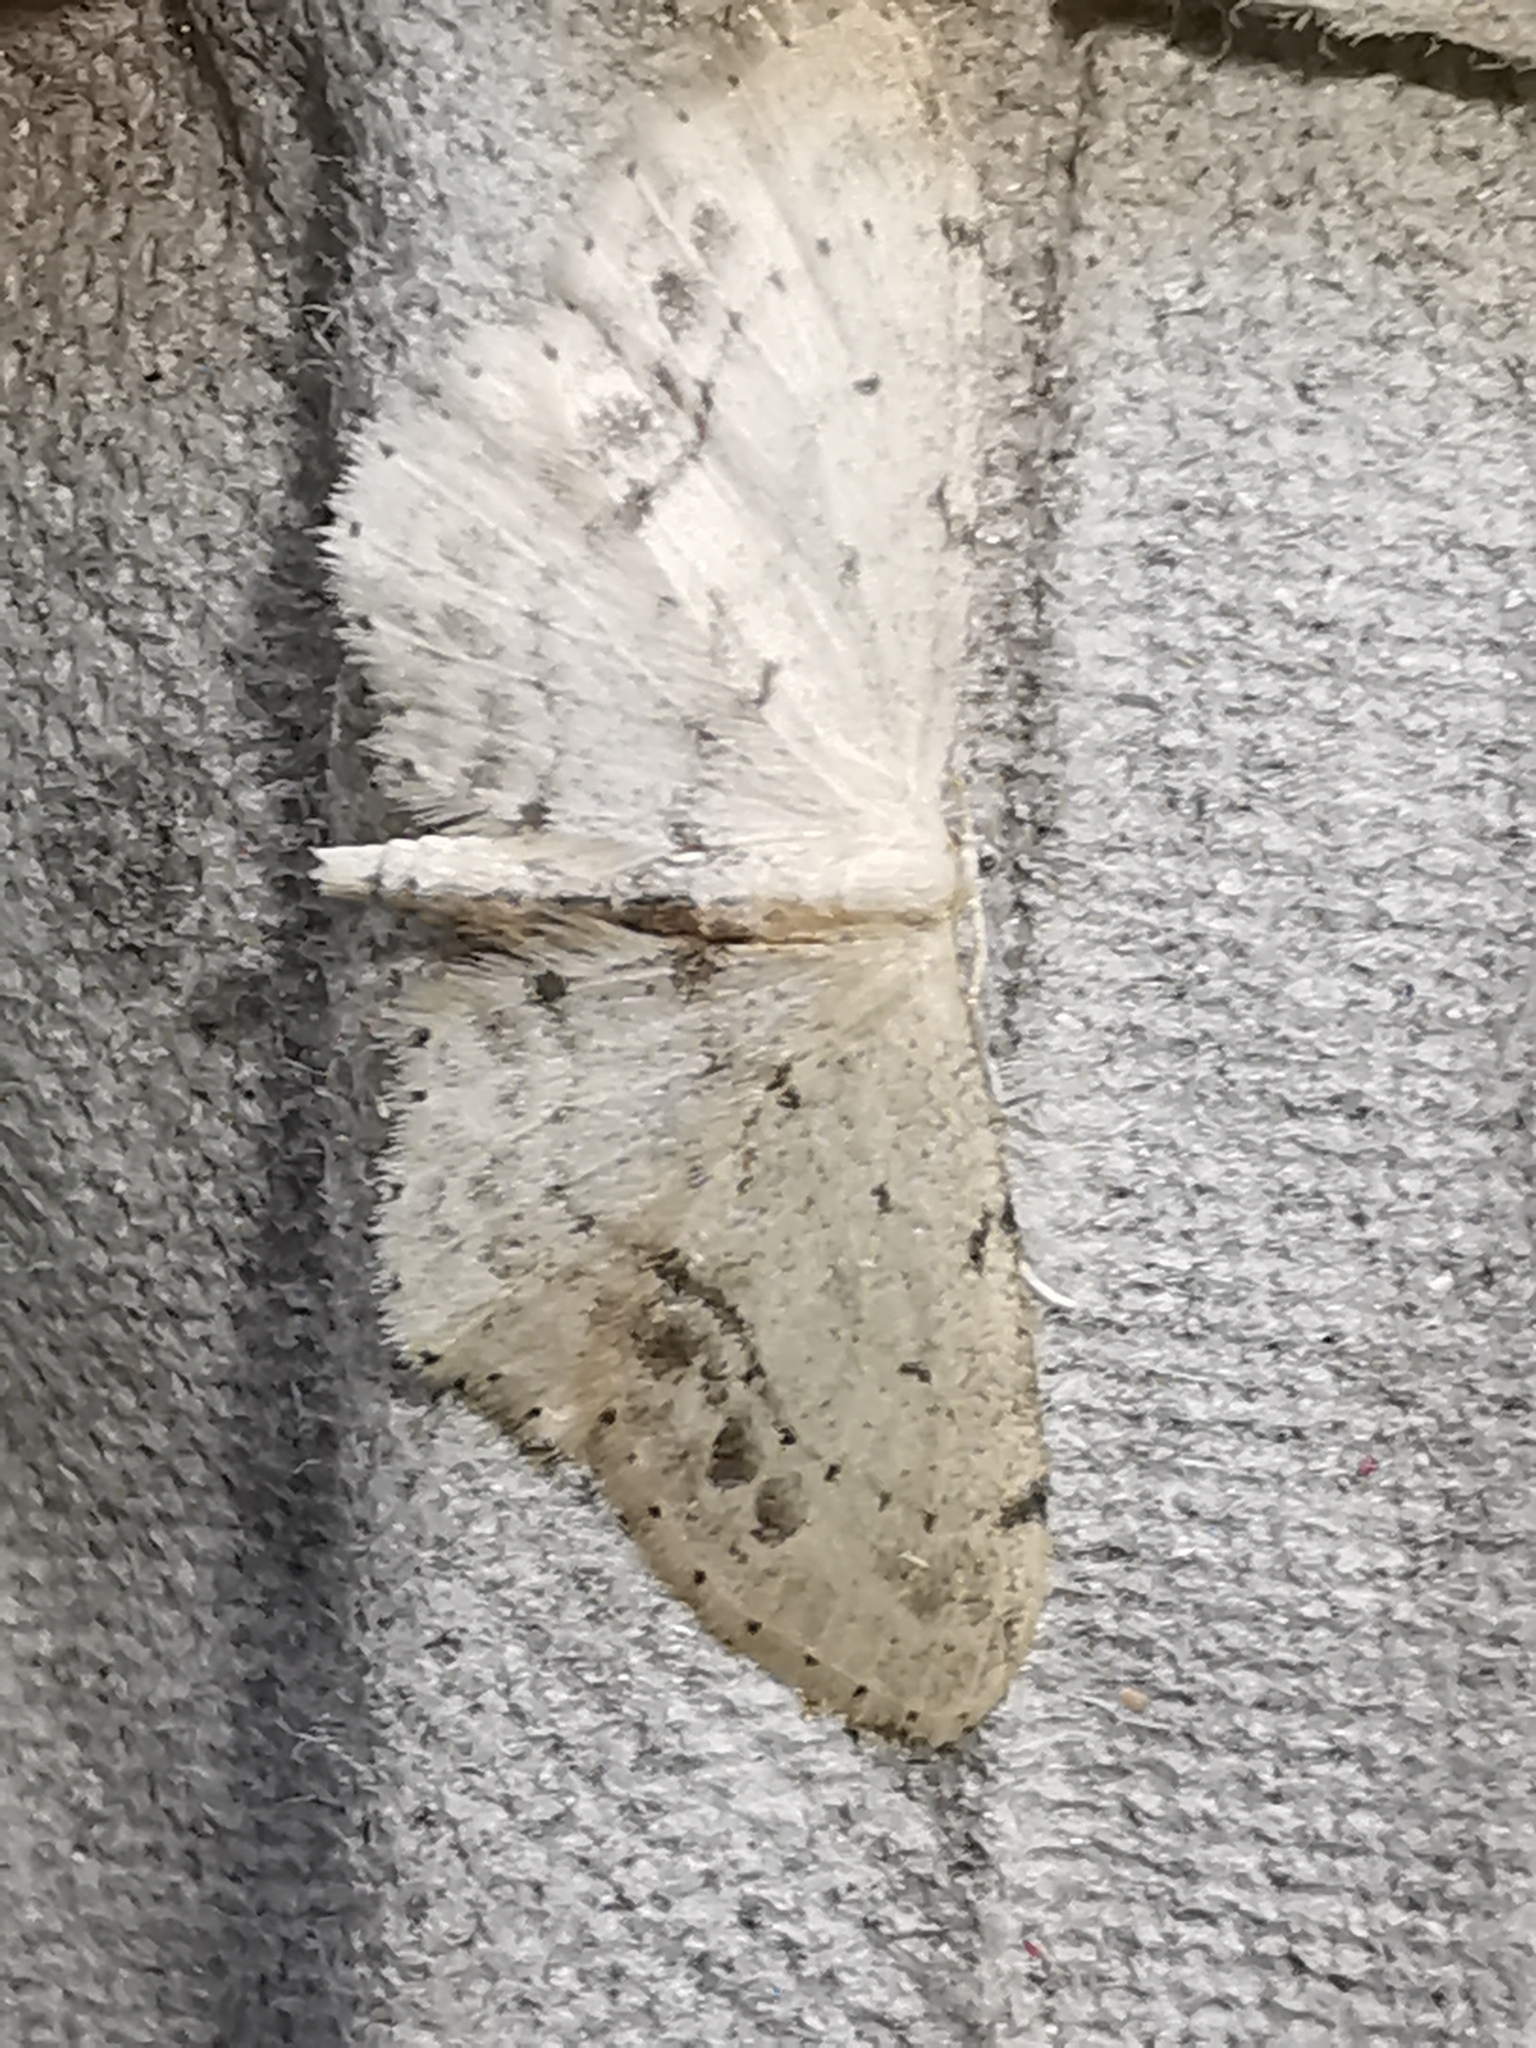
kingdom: Animalia
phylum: Arthropoda
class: Insecta
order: Lepidoptera
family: Geometridae
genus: Idaea
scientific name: Idaea dimidiata
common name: Single-dotted wave
